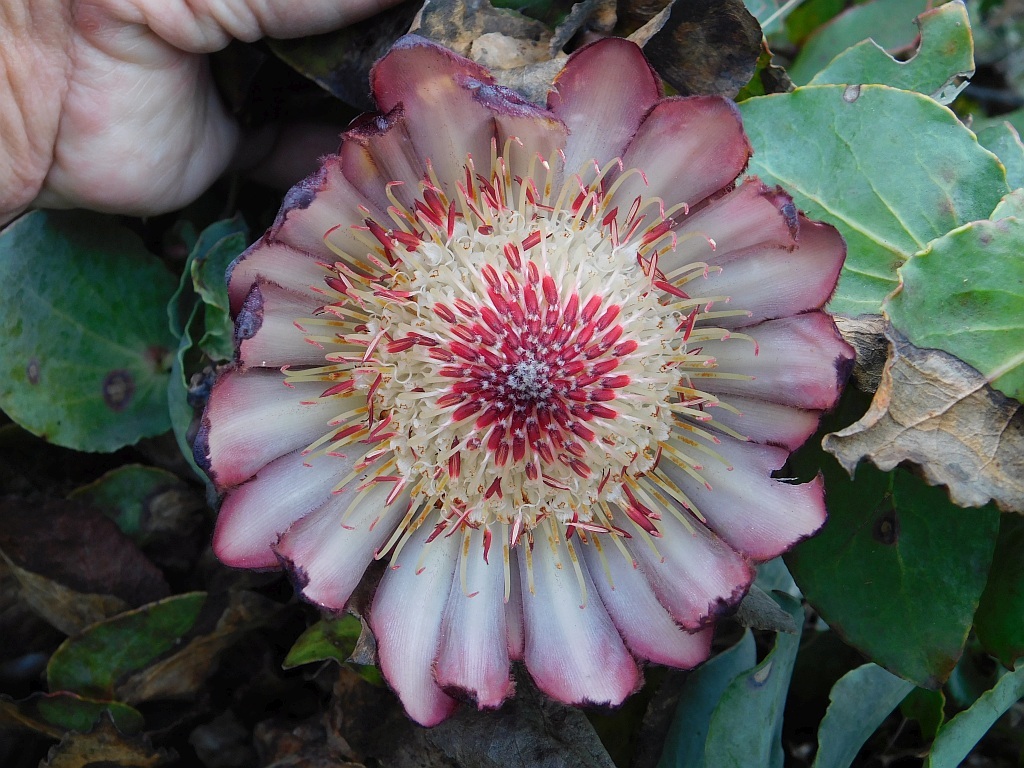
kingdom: Plantae
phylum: Tracheophyta
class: Magnoliopsida
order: Proteales
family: Proteaceae
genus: Protea
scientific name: Protea amplexicaulis
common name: Clasping-leaf sugarbush
